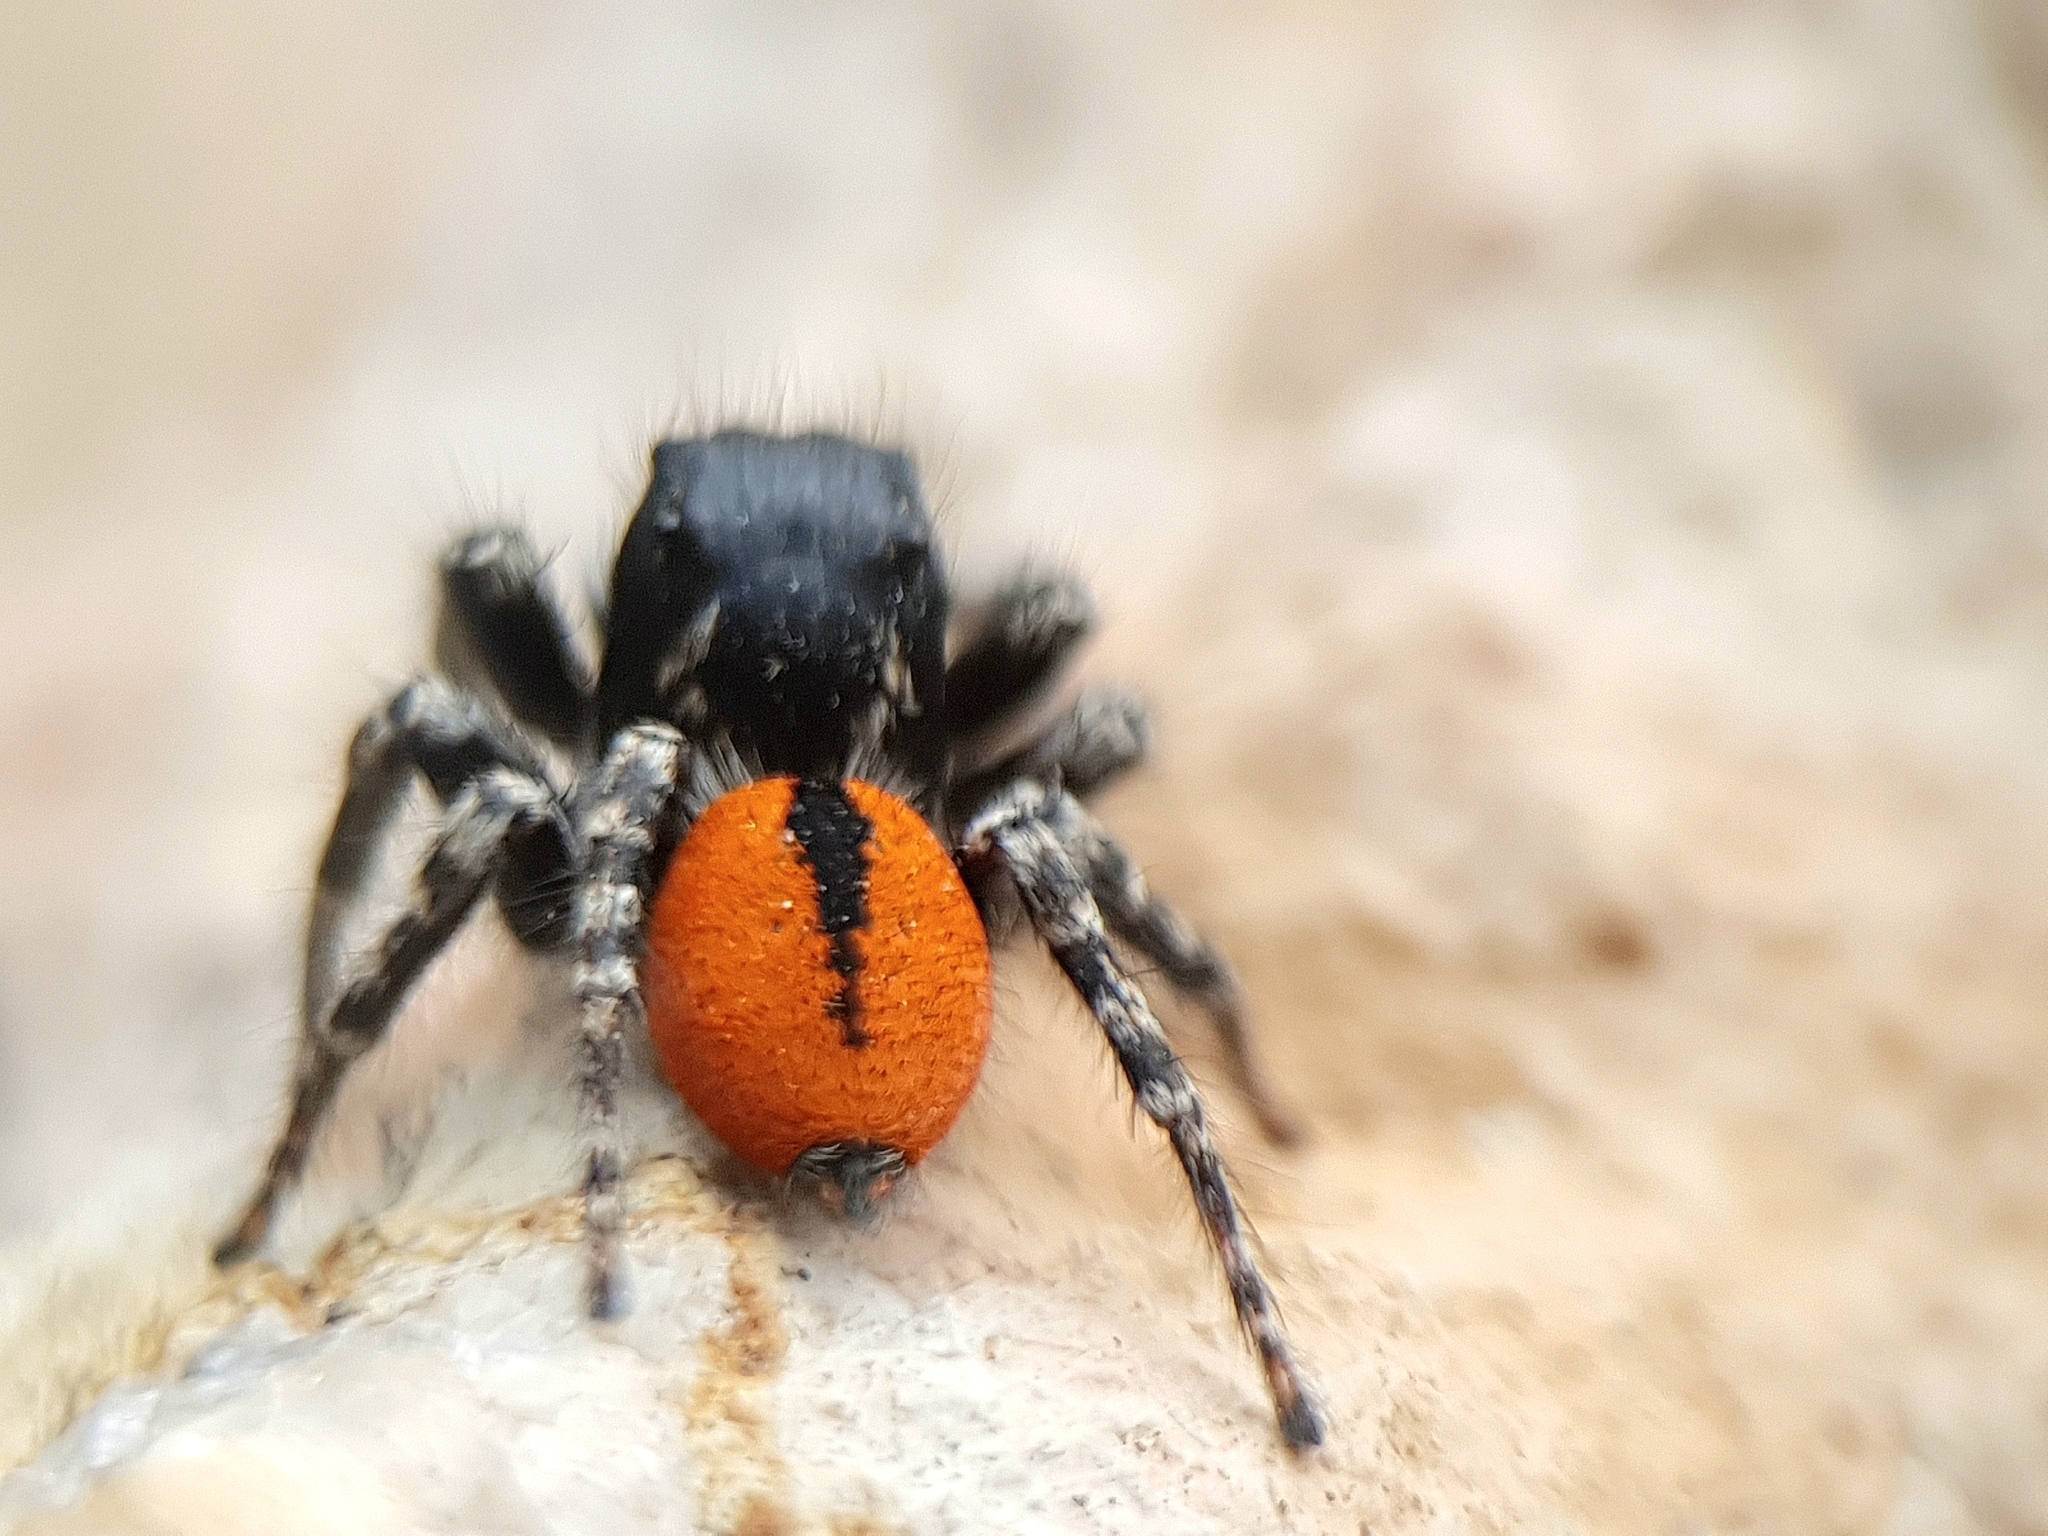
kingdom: Animalia
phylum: Arthropoda
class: Arachnida
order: Araneae
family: Salticidae
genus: Philaeus
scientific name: Philaeus chrysops
